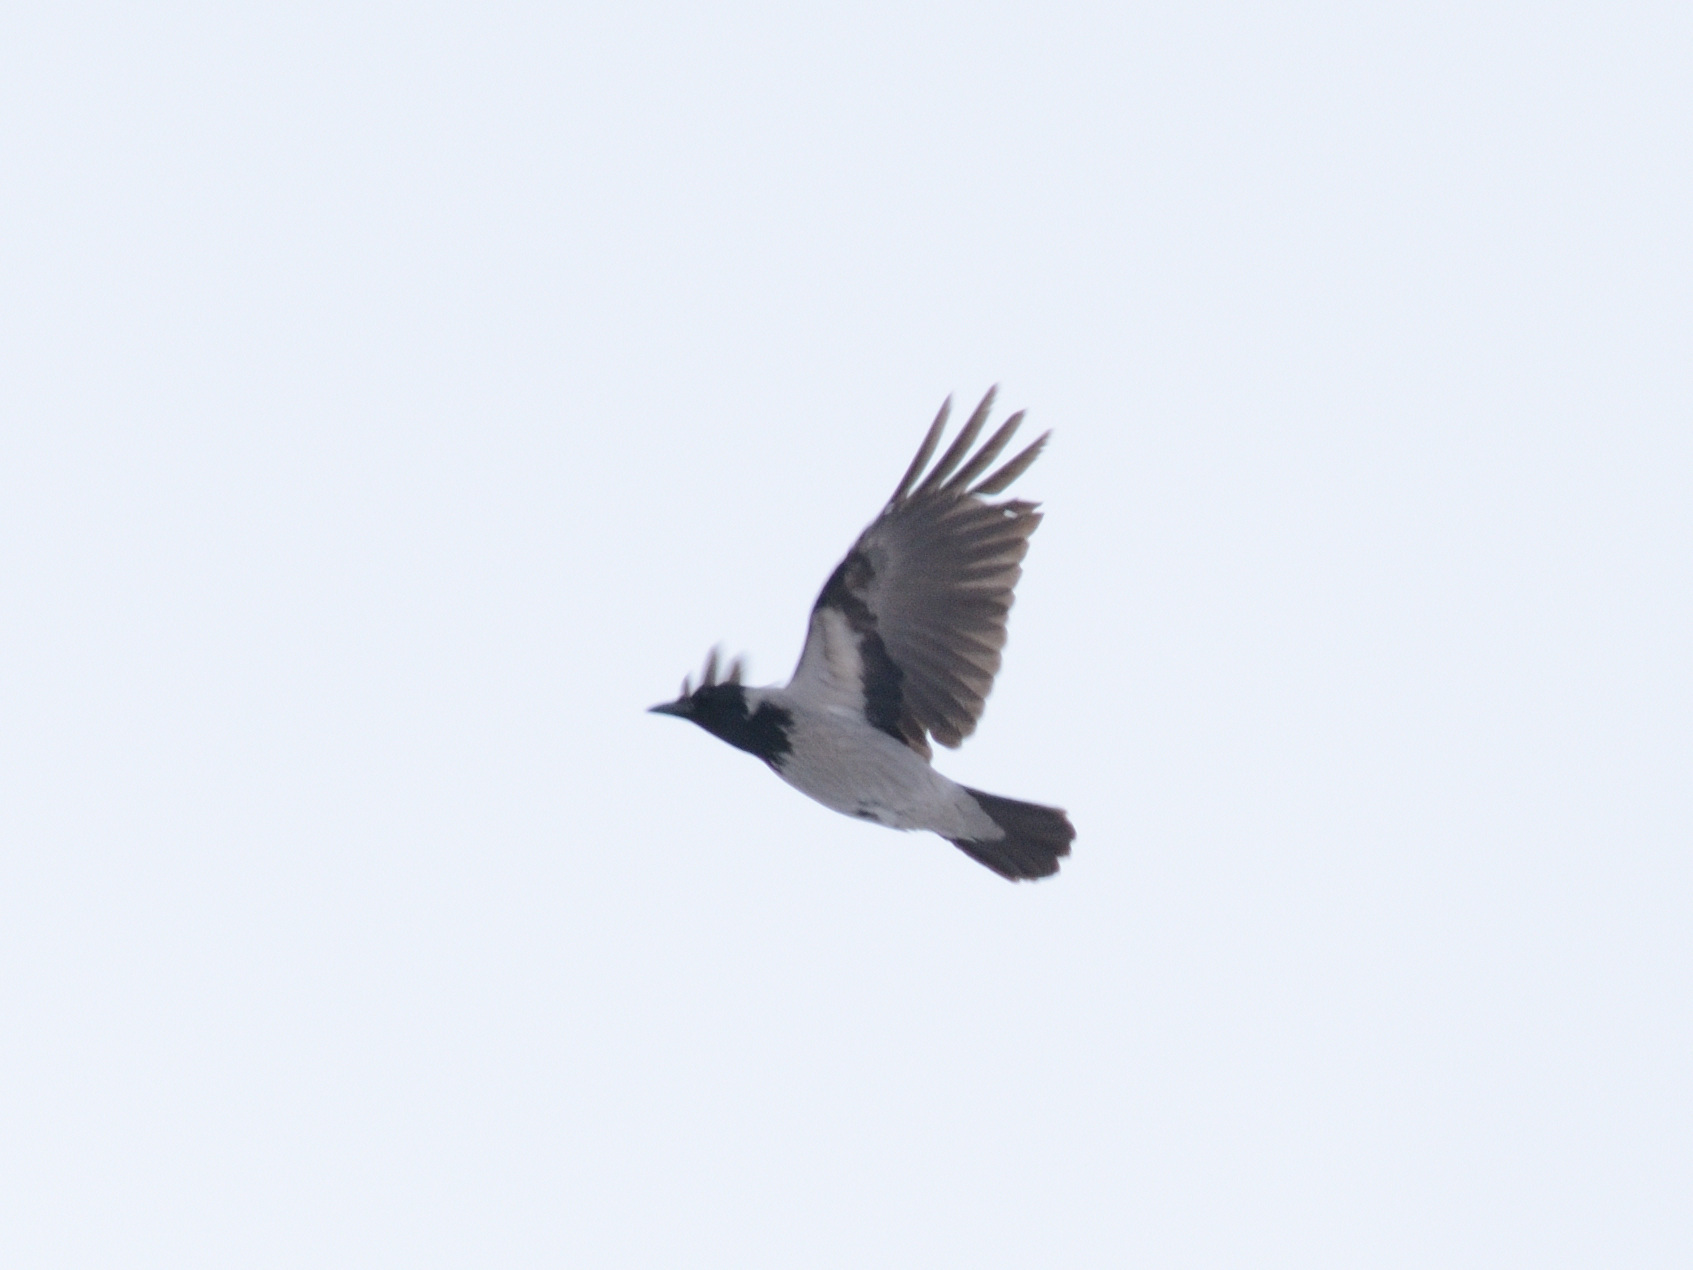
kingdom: Animalia
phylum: Chordata
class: Aves
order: Passeriformes
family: Corvidae
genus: Corvus
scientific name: Corvus cornix
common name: Hooded crow
